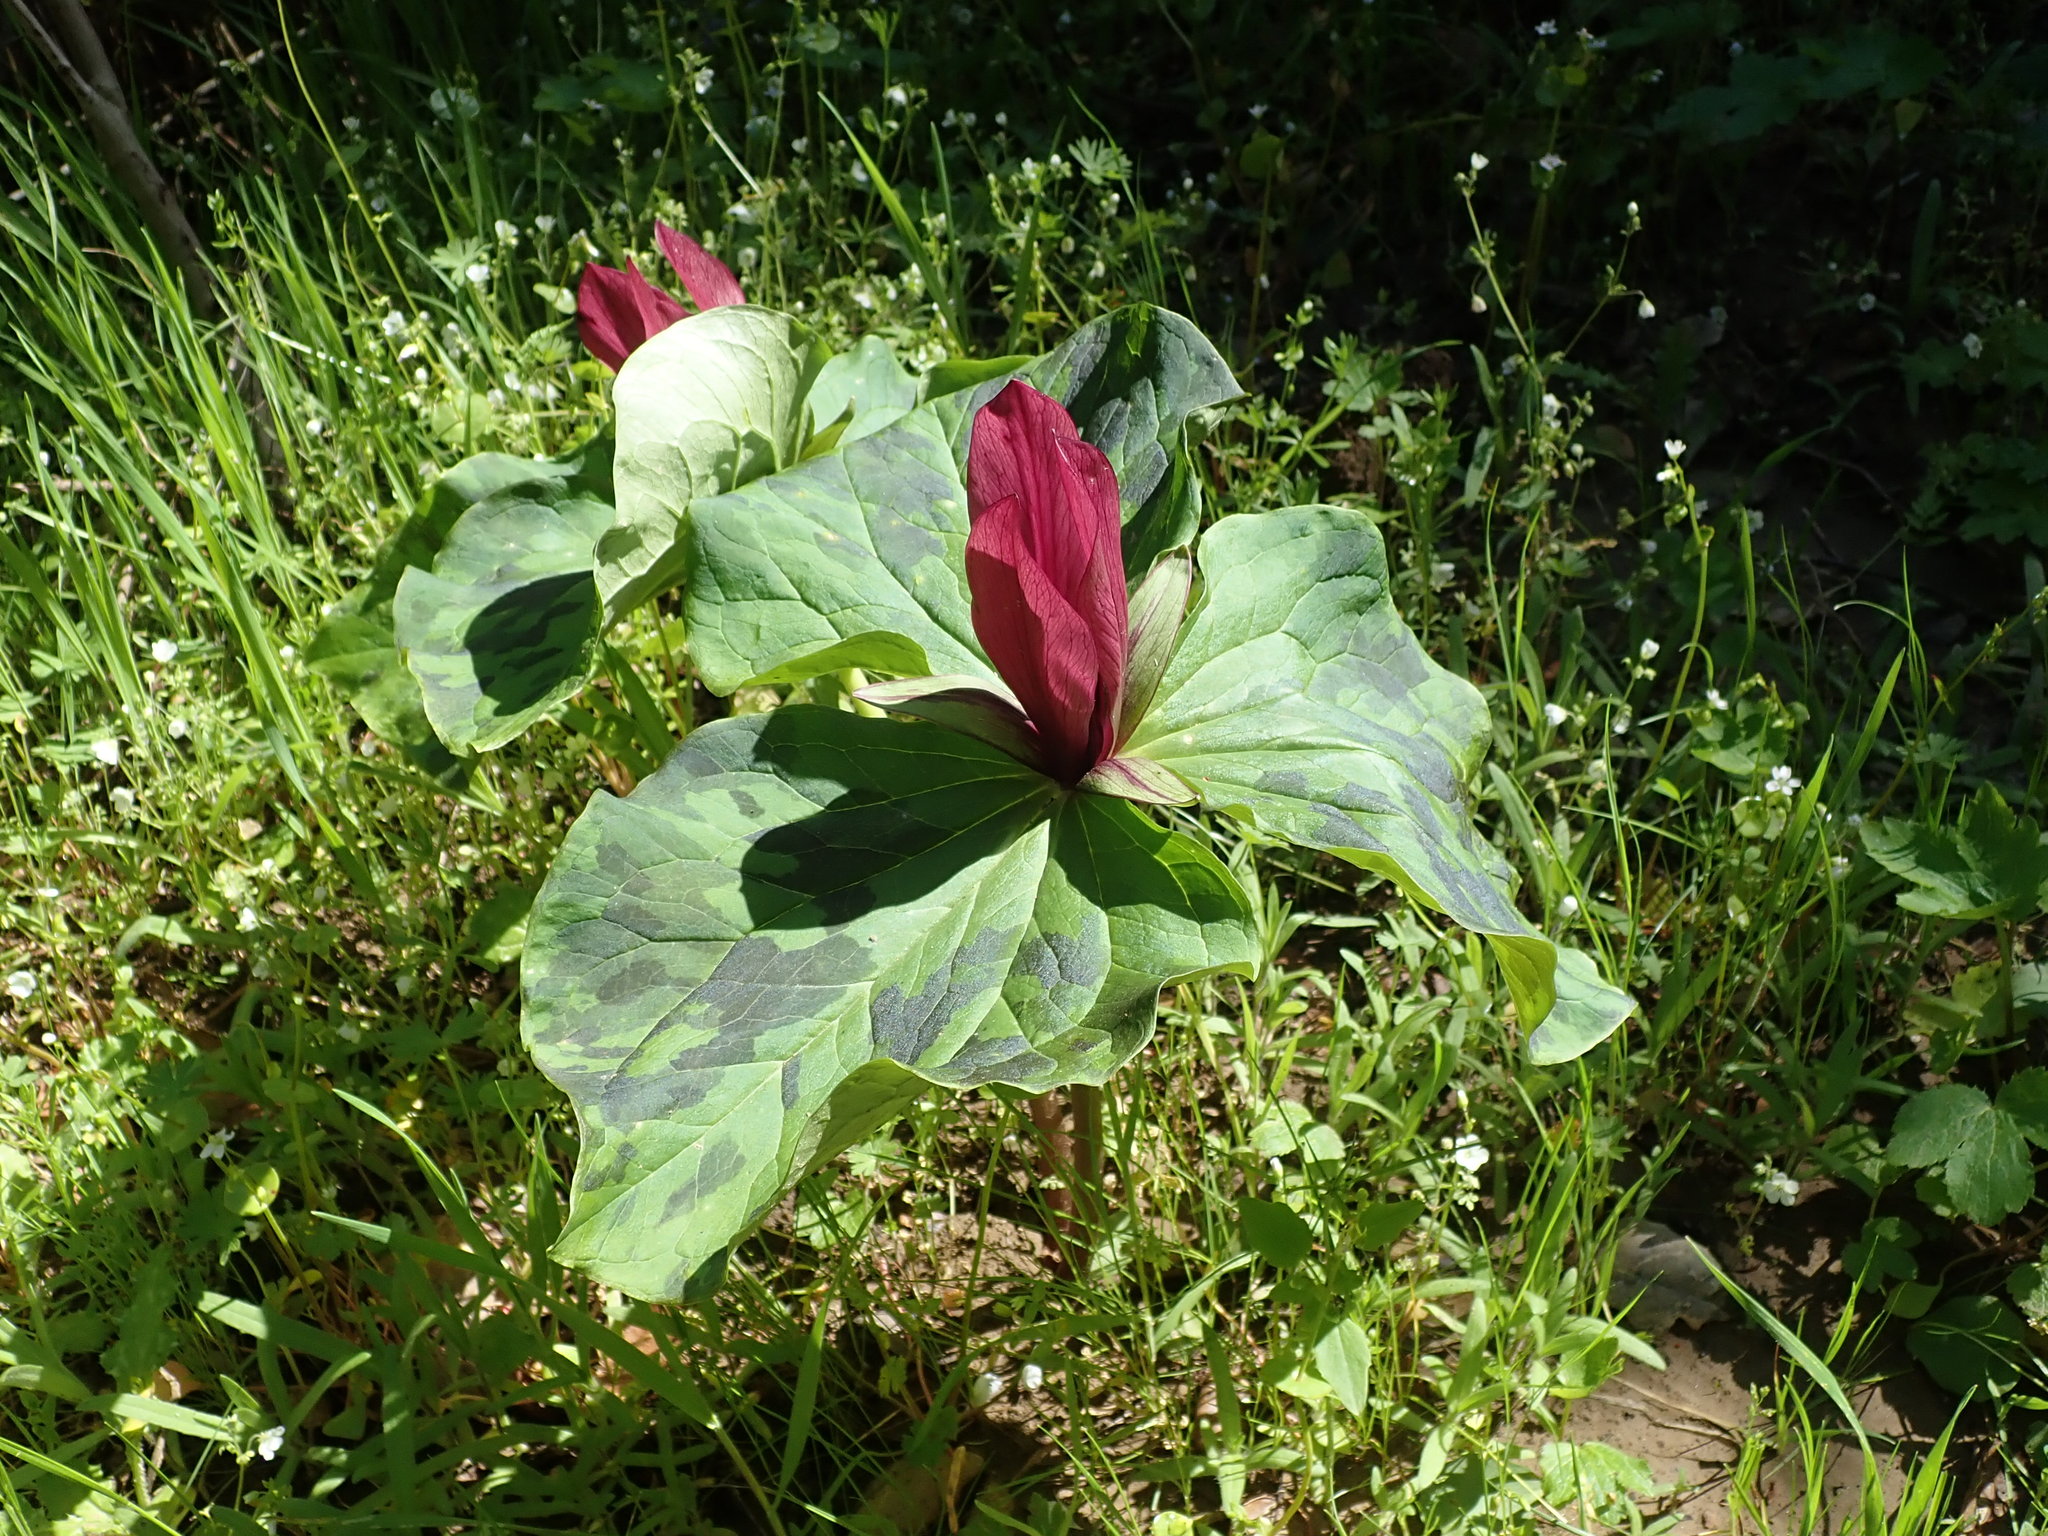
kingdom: Plantae
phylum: Tracheophyta
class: Liliopsida
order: Liliales
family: Melanthiaceae
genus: Trillium
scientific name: Trillium chloropetalum
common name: Giant trillium
